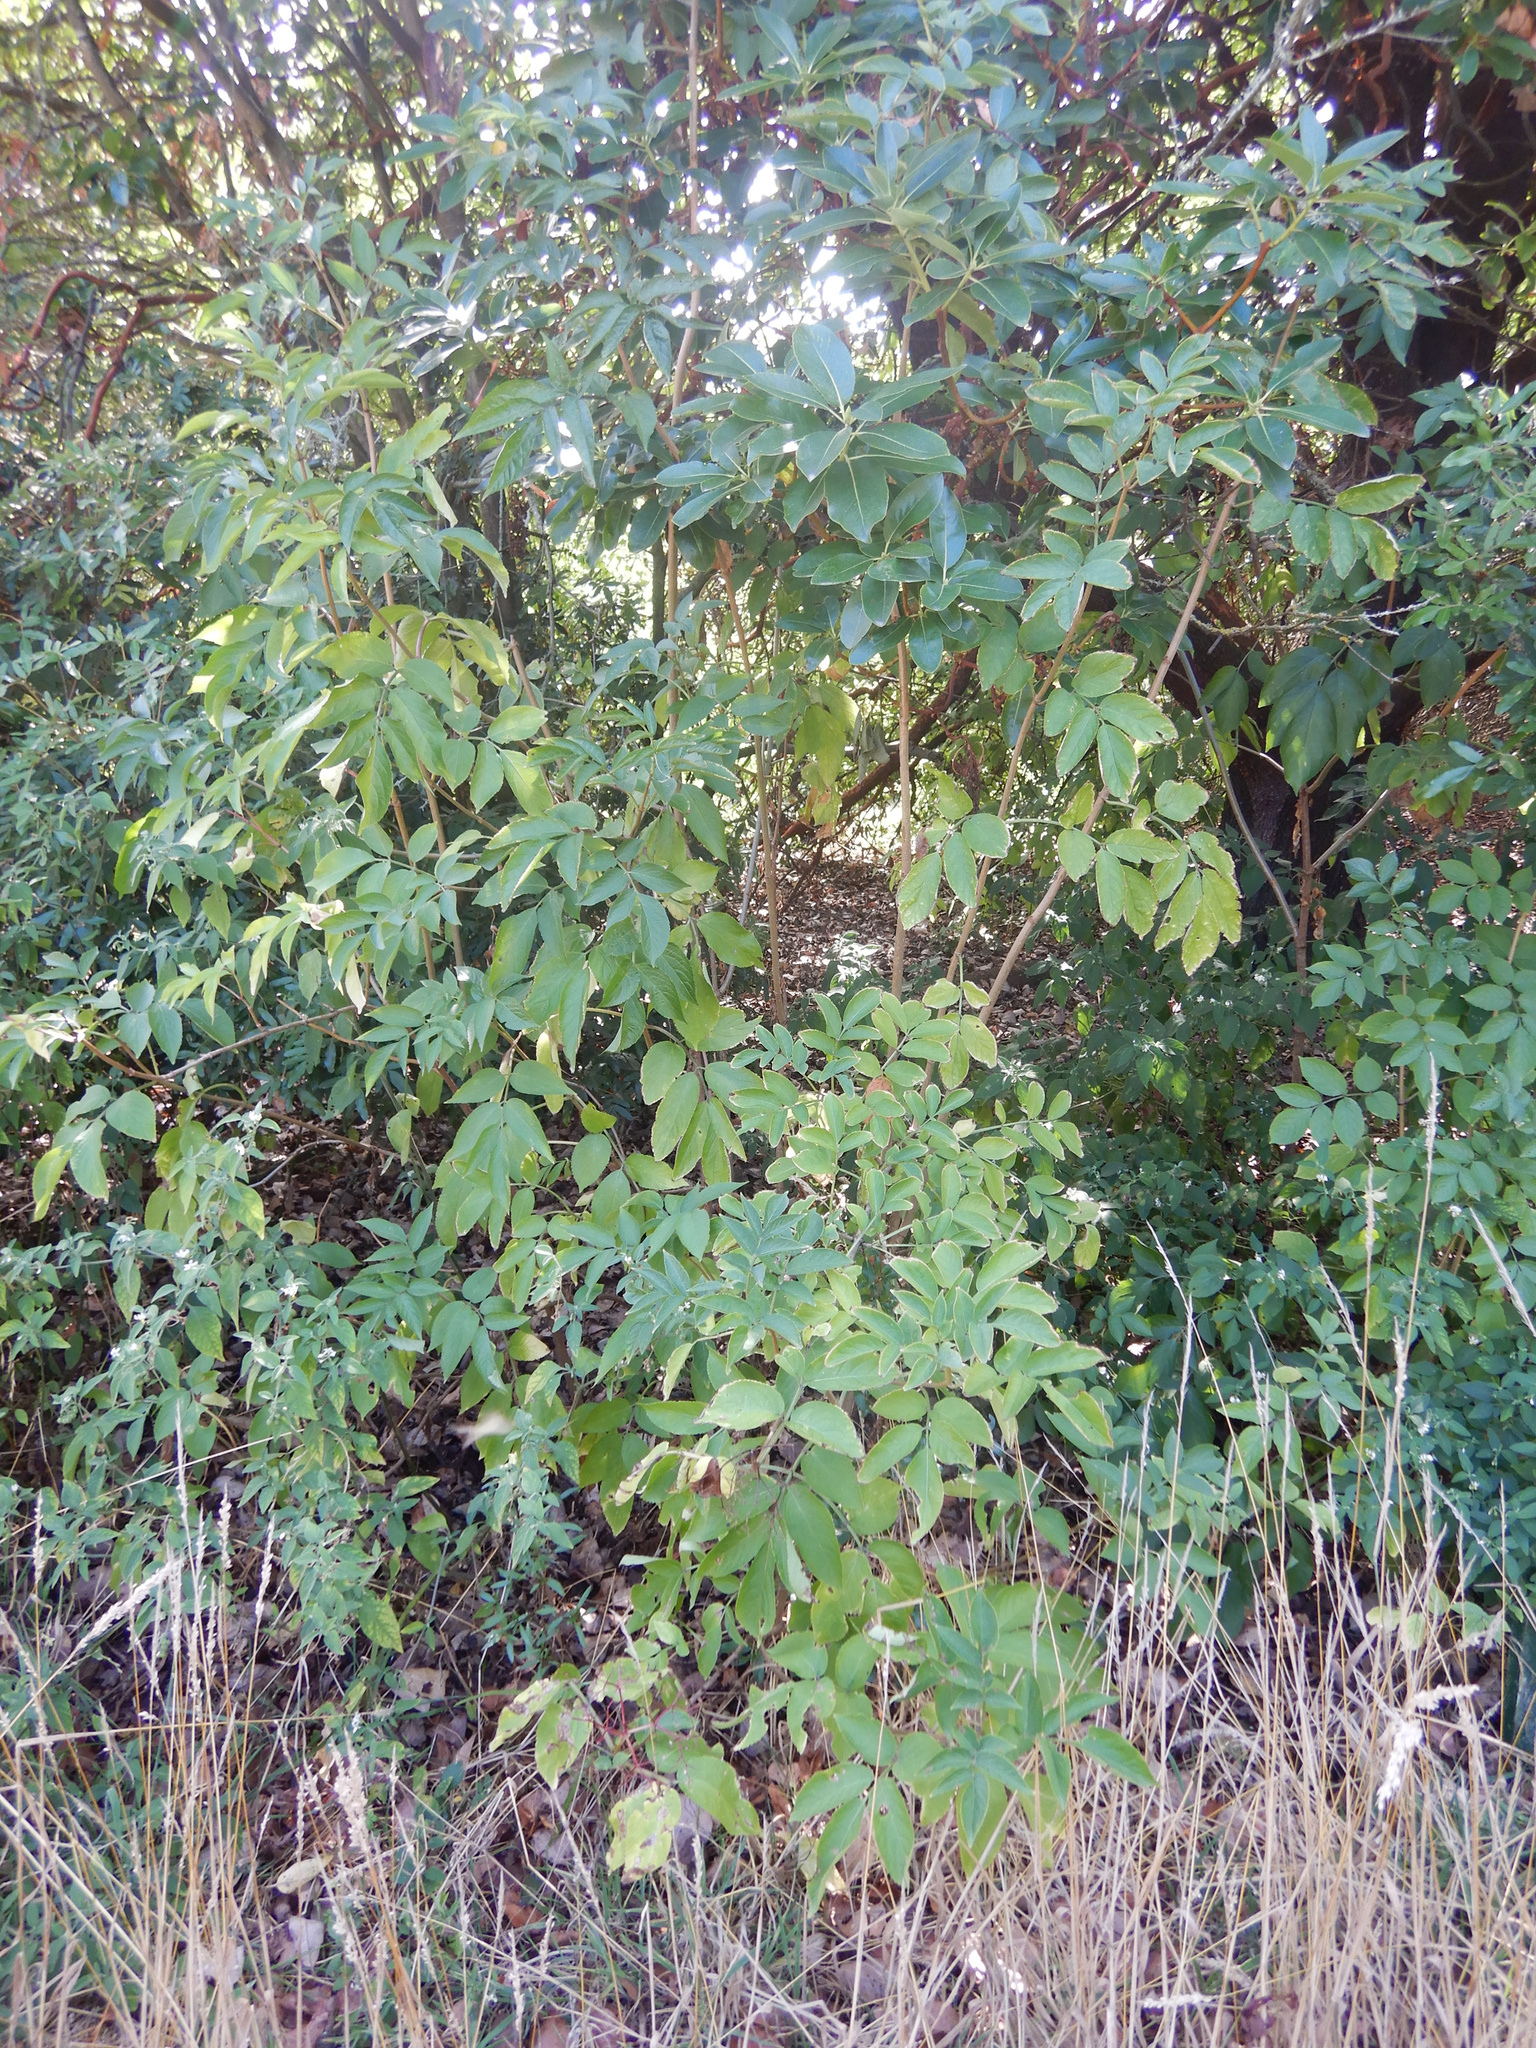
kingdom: Plantae
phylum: Tracheophyta
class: Magnoliopsida
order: Dipsacales
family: Viburnaceae
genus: Sambucus
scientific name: Sambucus nigra
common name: Elder
